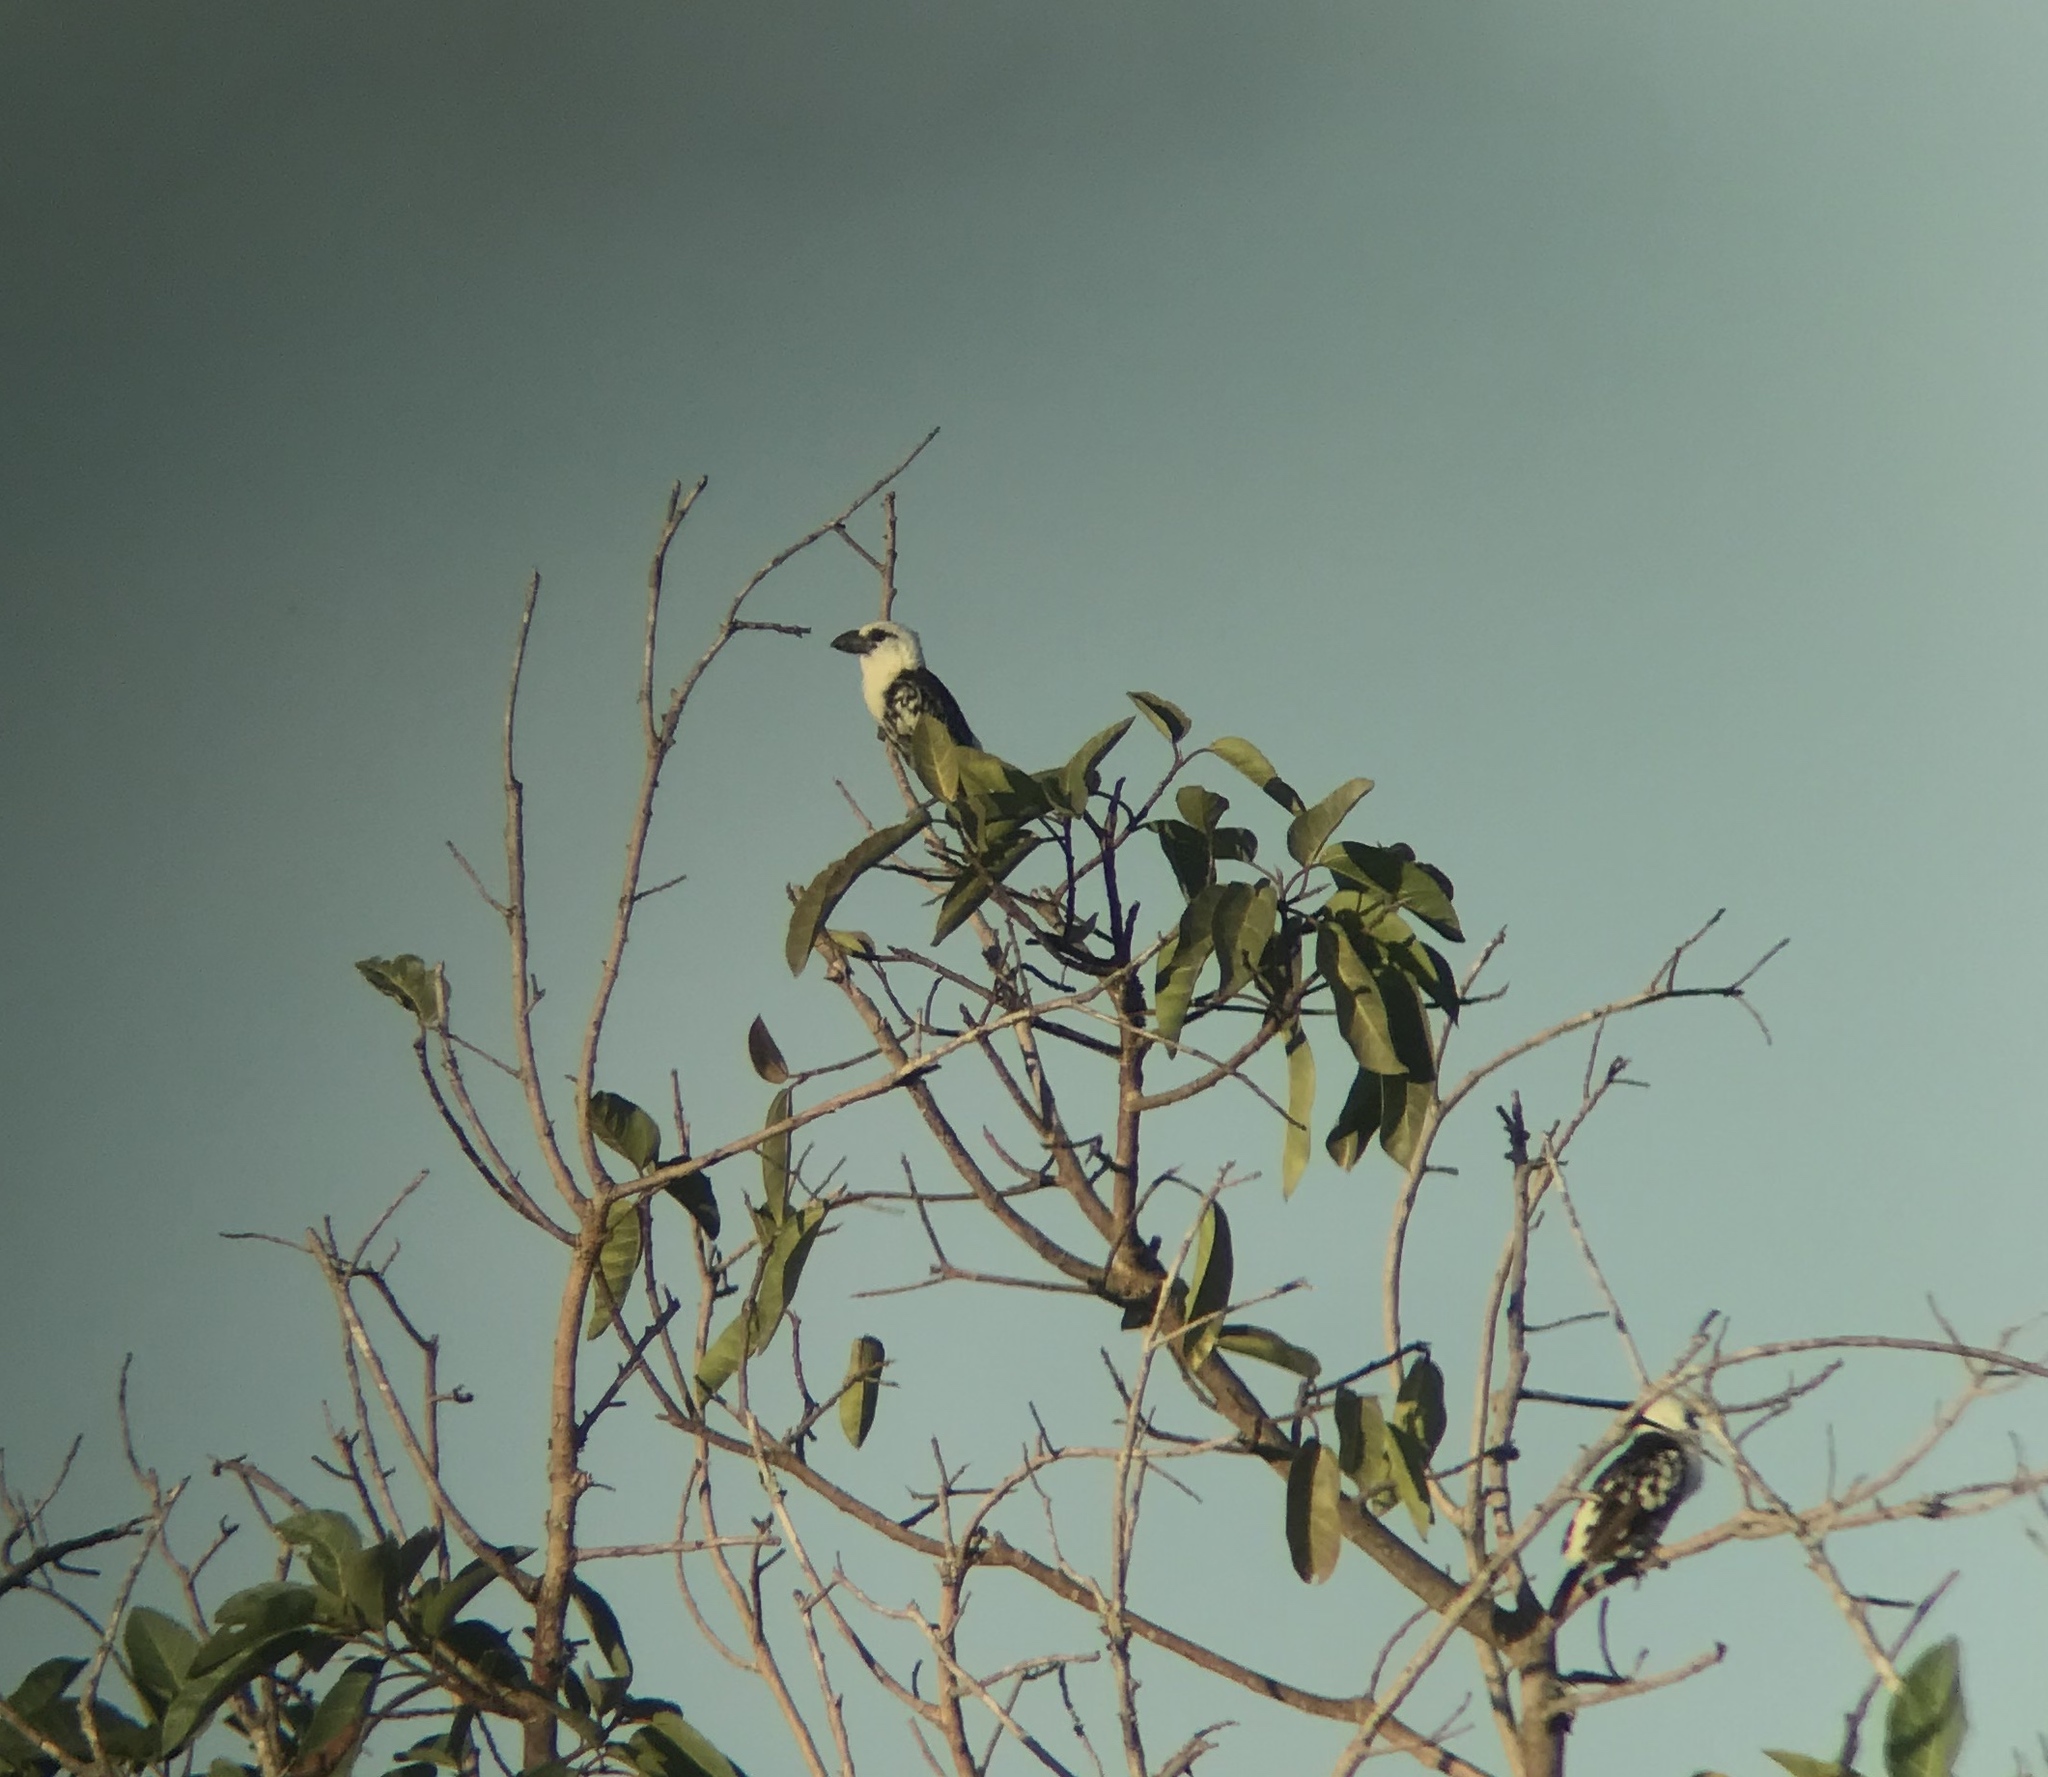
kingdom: Animalia
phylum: Chordata
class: Aves
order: Piciformes
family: Lybiidae
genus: Lybius
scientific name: Lybius leucocephalus
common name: White-headed barbet
